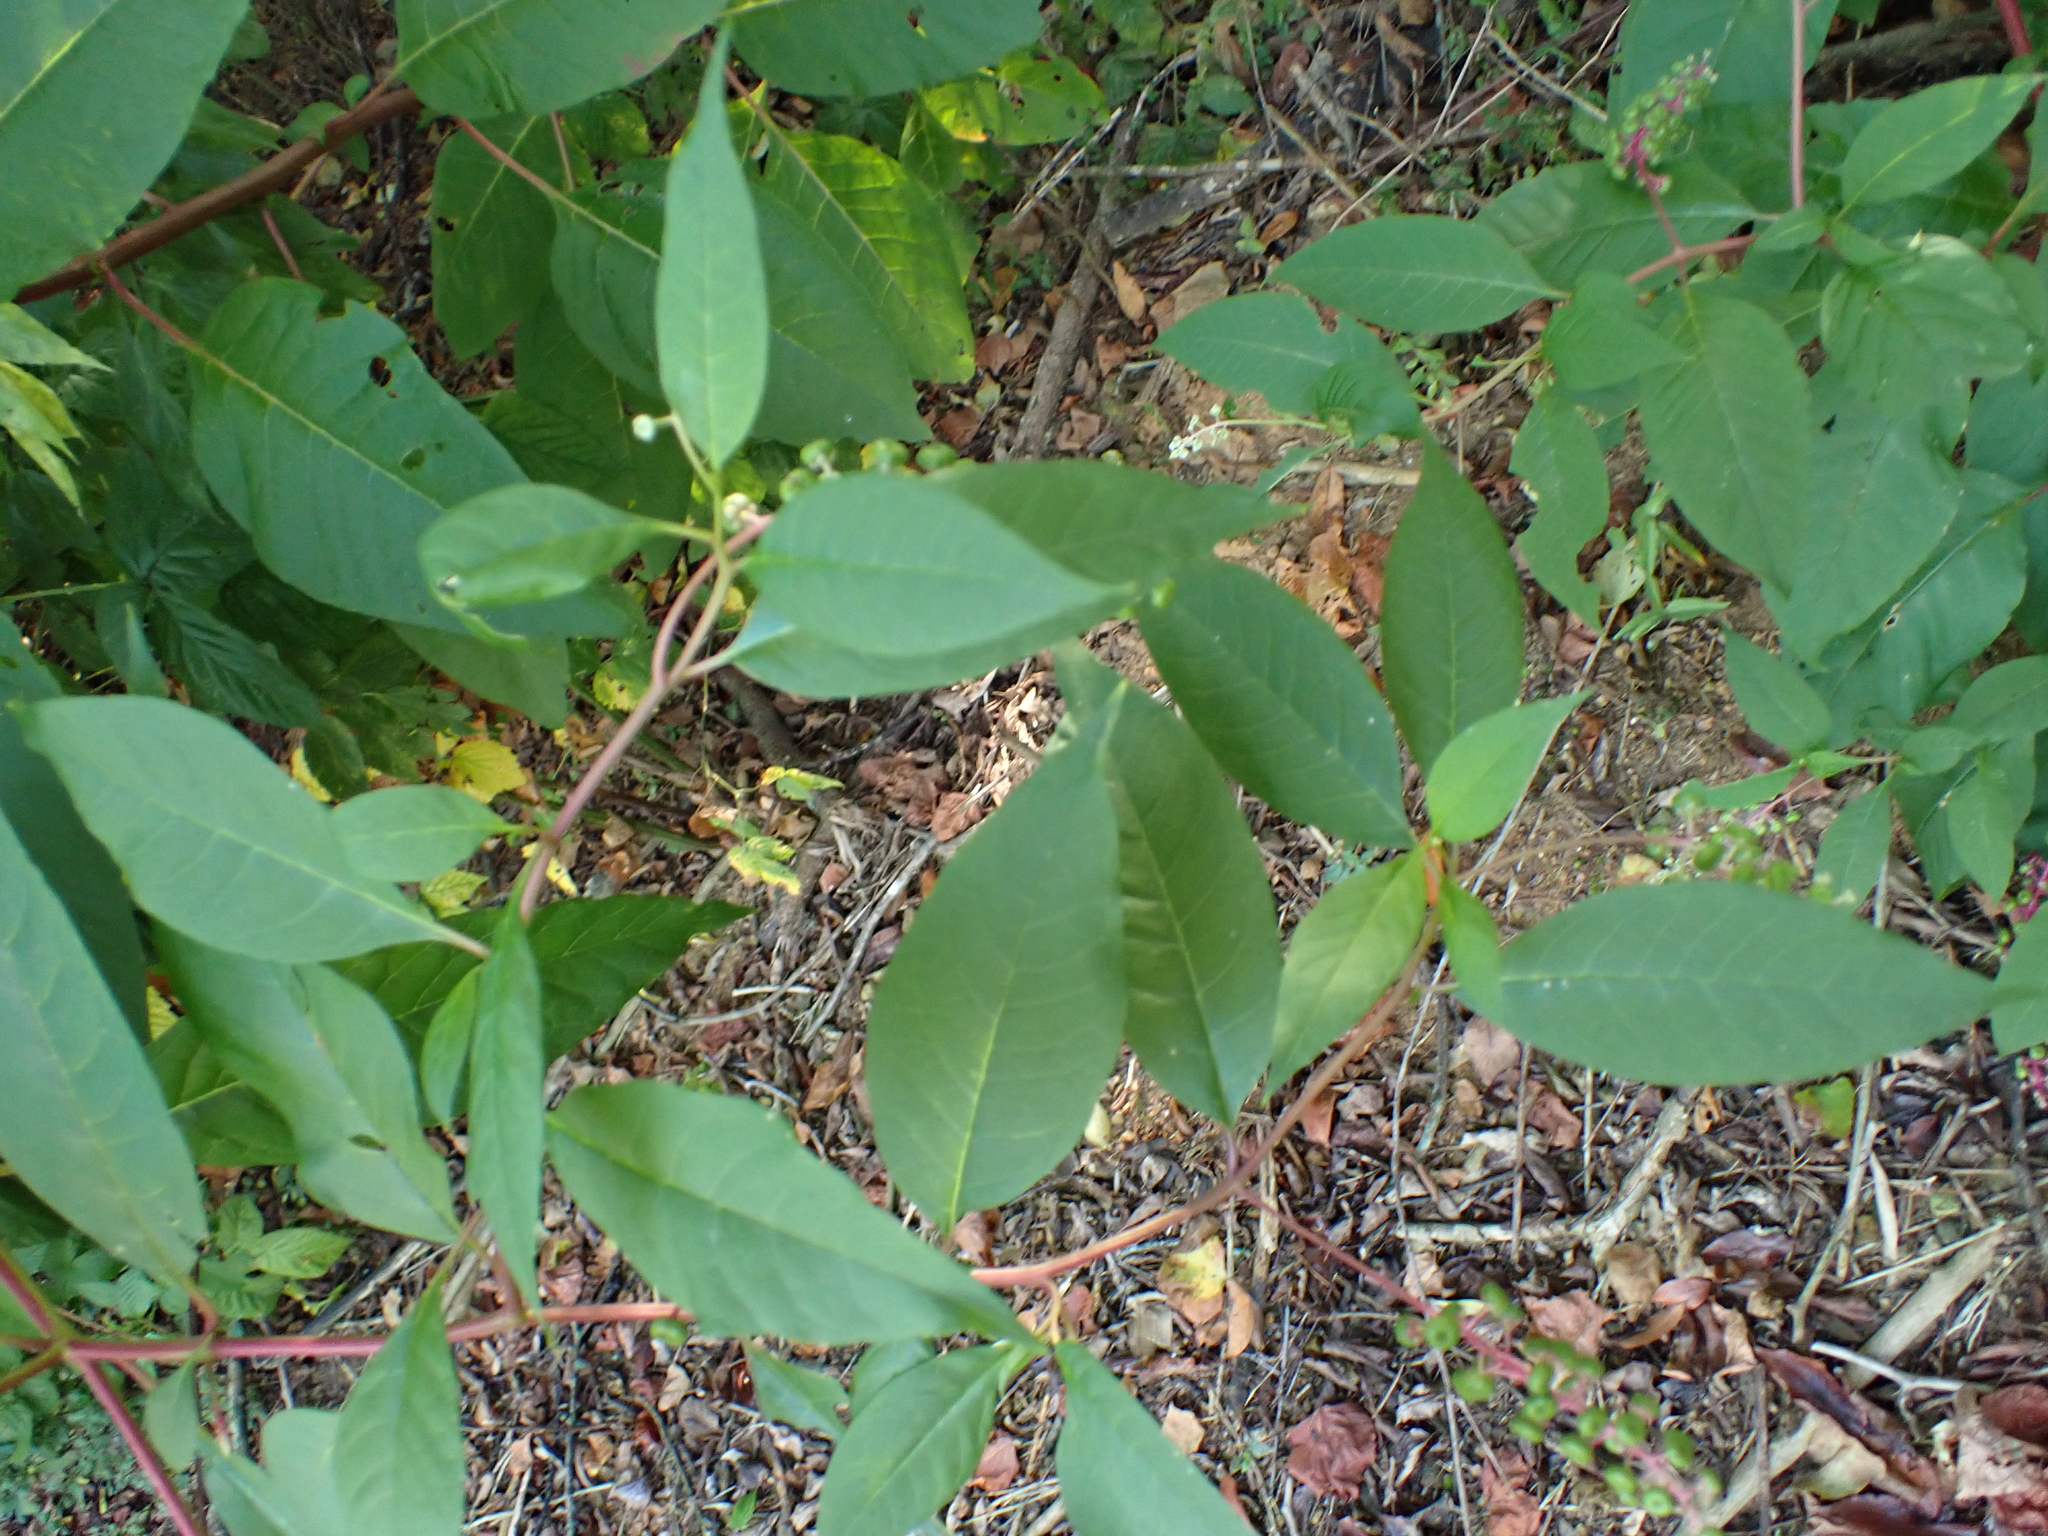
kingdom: Plantae
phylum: Tracheophyta
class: Magnoliopsida
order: Caryophyllales
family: Phytolaccaceae
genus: Phytolacca
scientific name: Phytolacca americana
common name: American pokeweed
